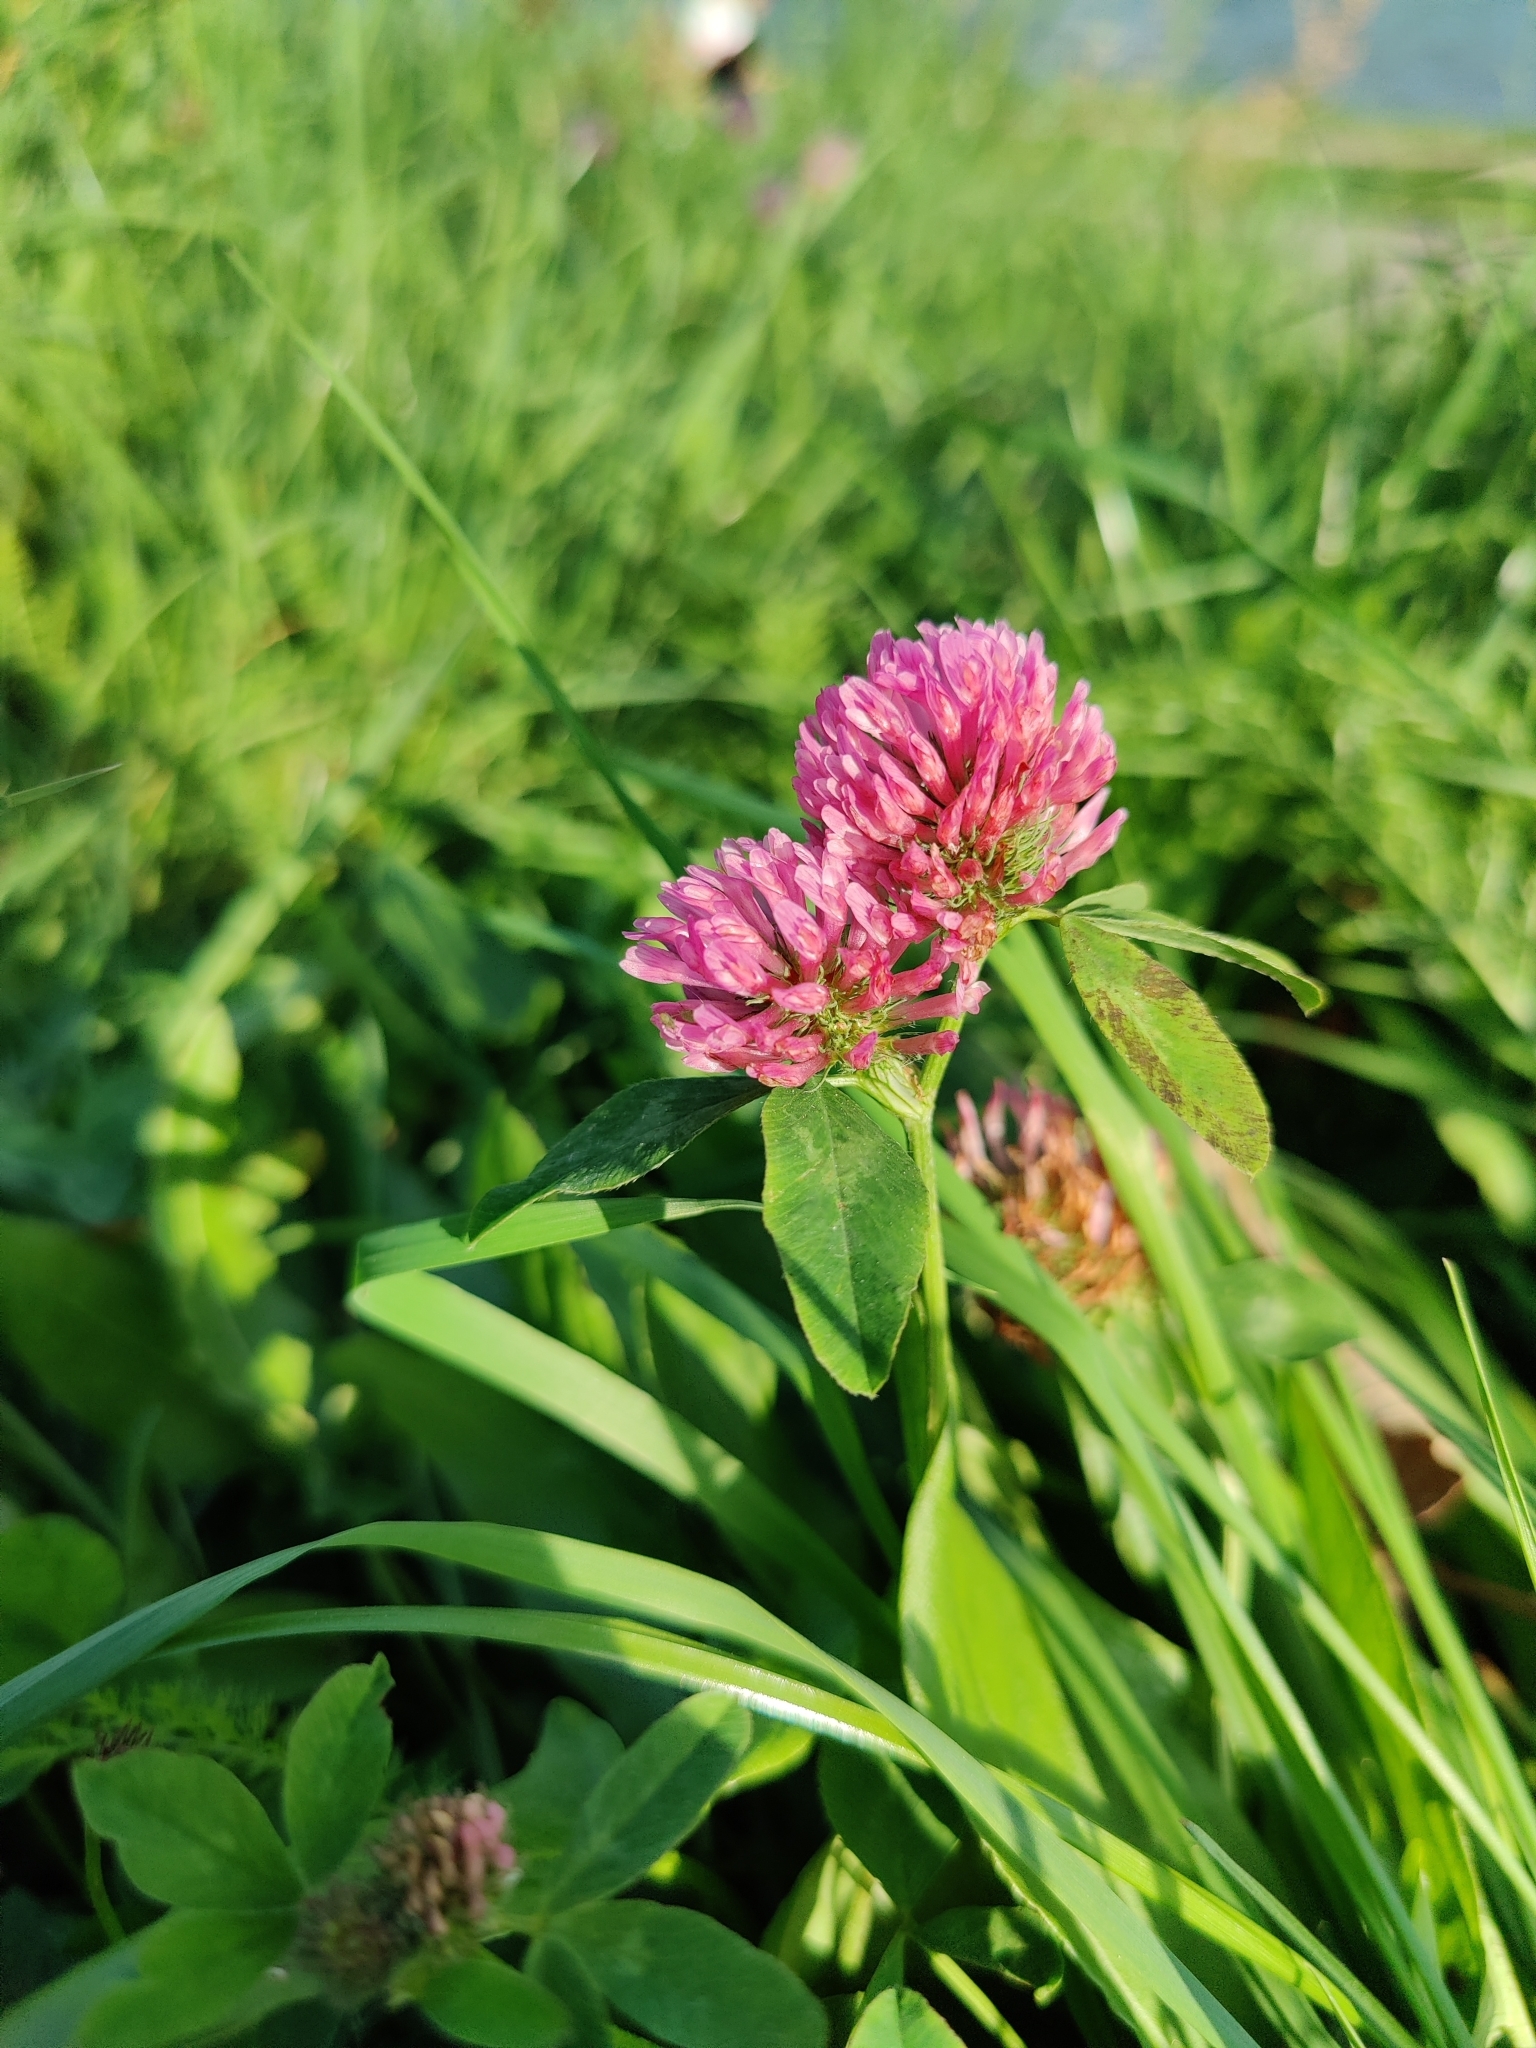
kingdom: Plantae
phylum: Tracheophyta
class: Magnoliopsida
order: Fabales
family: Fabaceae
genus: Trifolium
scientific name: Trifolium pratense
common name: Red clover
